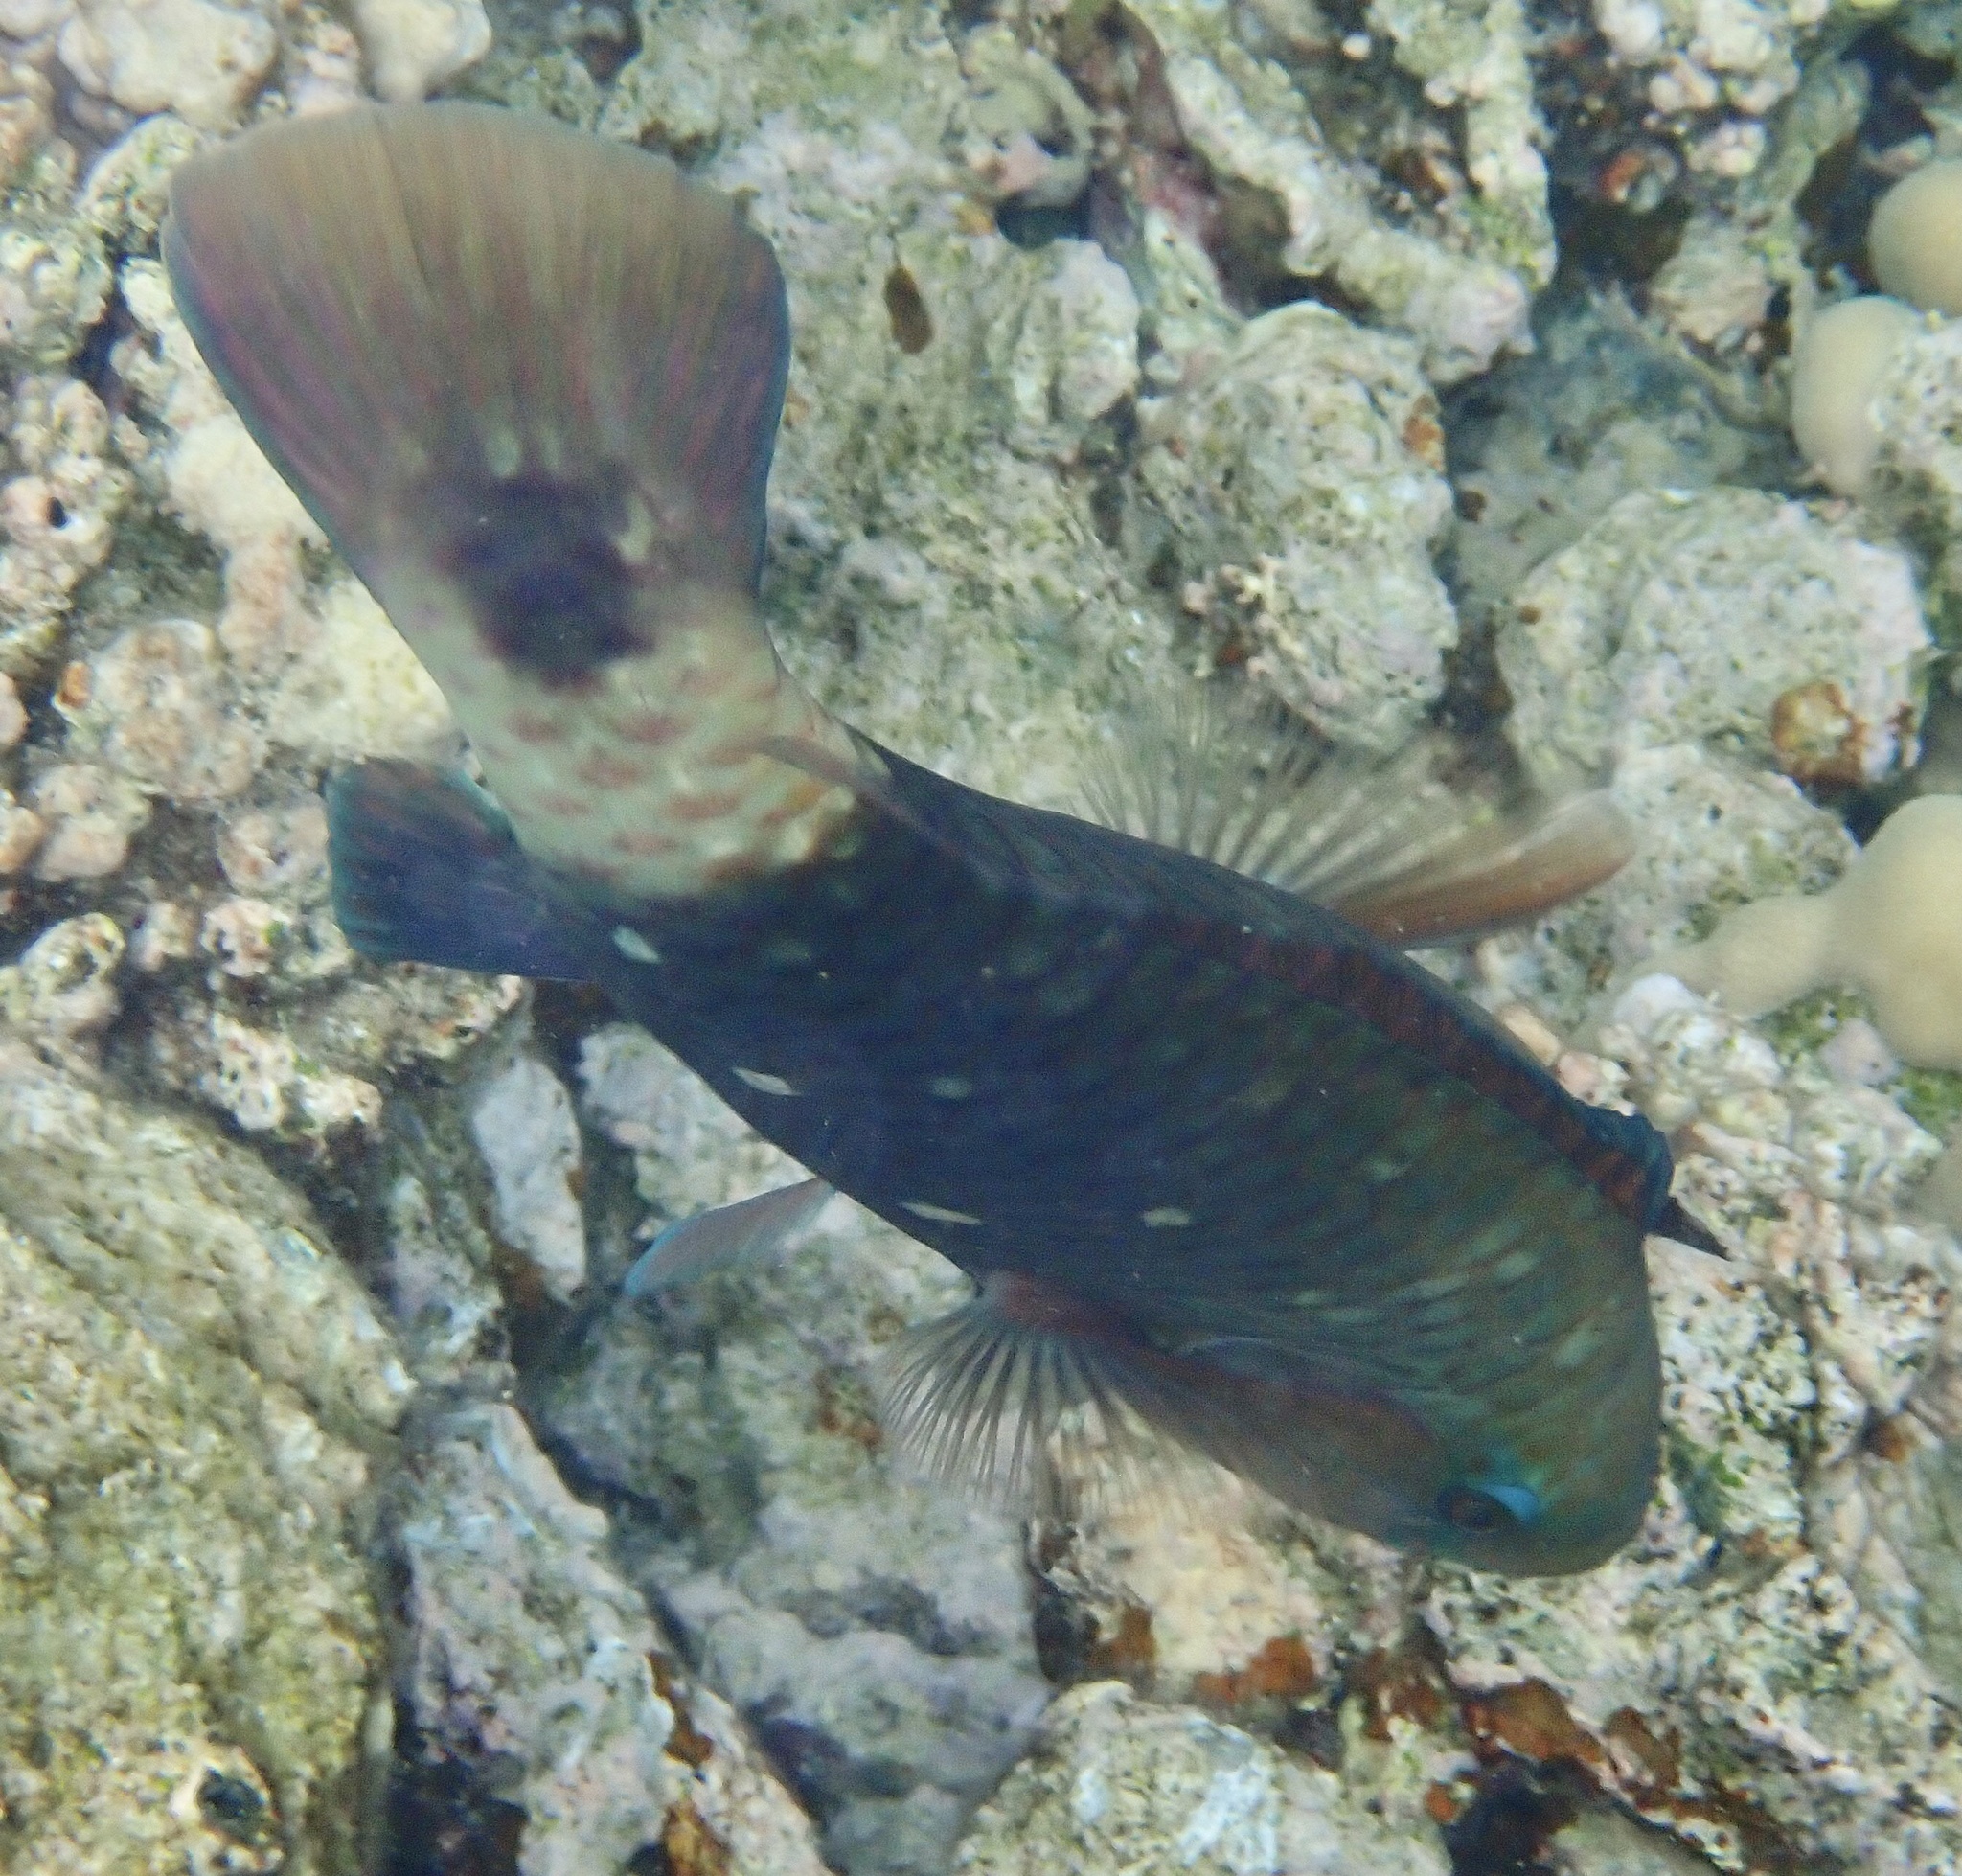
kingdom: Animalia
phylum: Chordata
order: Perciformes
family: Scaridae
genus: Chlorurus
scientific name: Chlorurus sordidus
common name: Bullethead parrotfish
